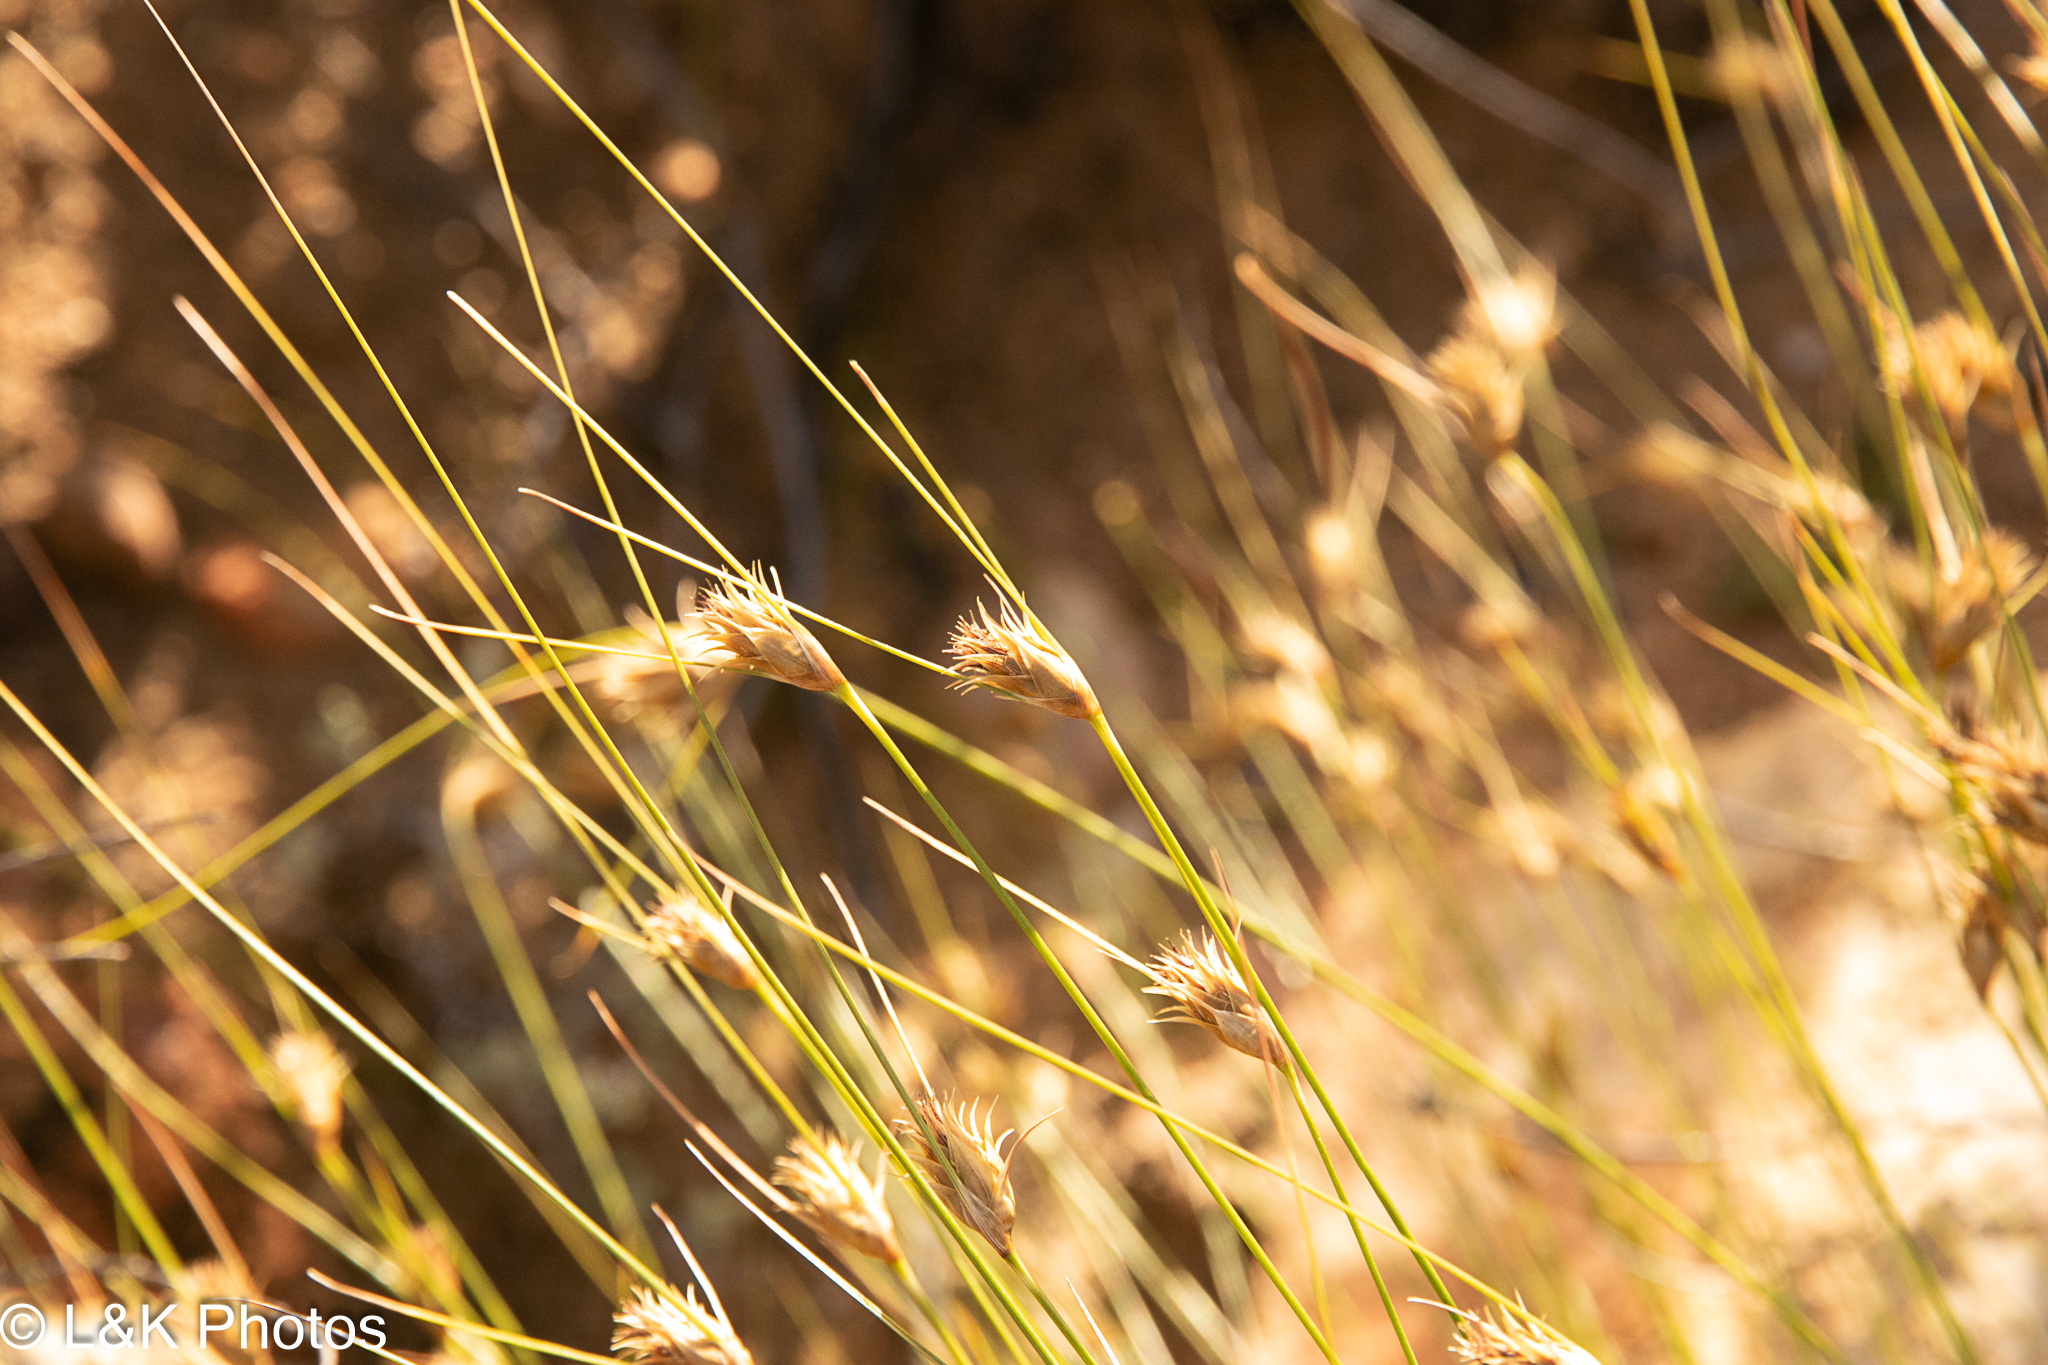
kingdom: Plantae
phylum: Tracheophyta
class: Liliopsida
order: Poales
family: Cyperaceae
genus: Ficinia
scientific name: Ficinia nigrescens
